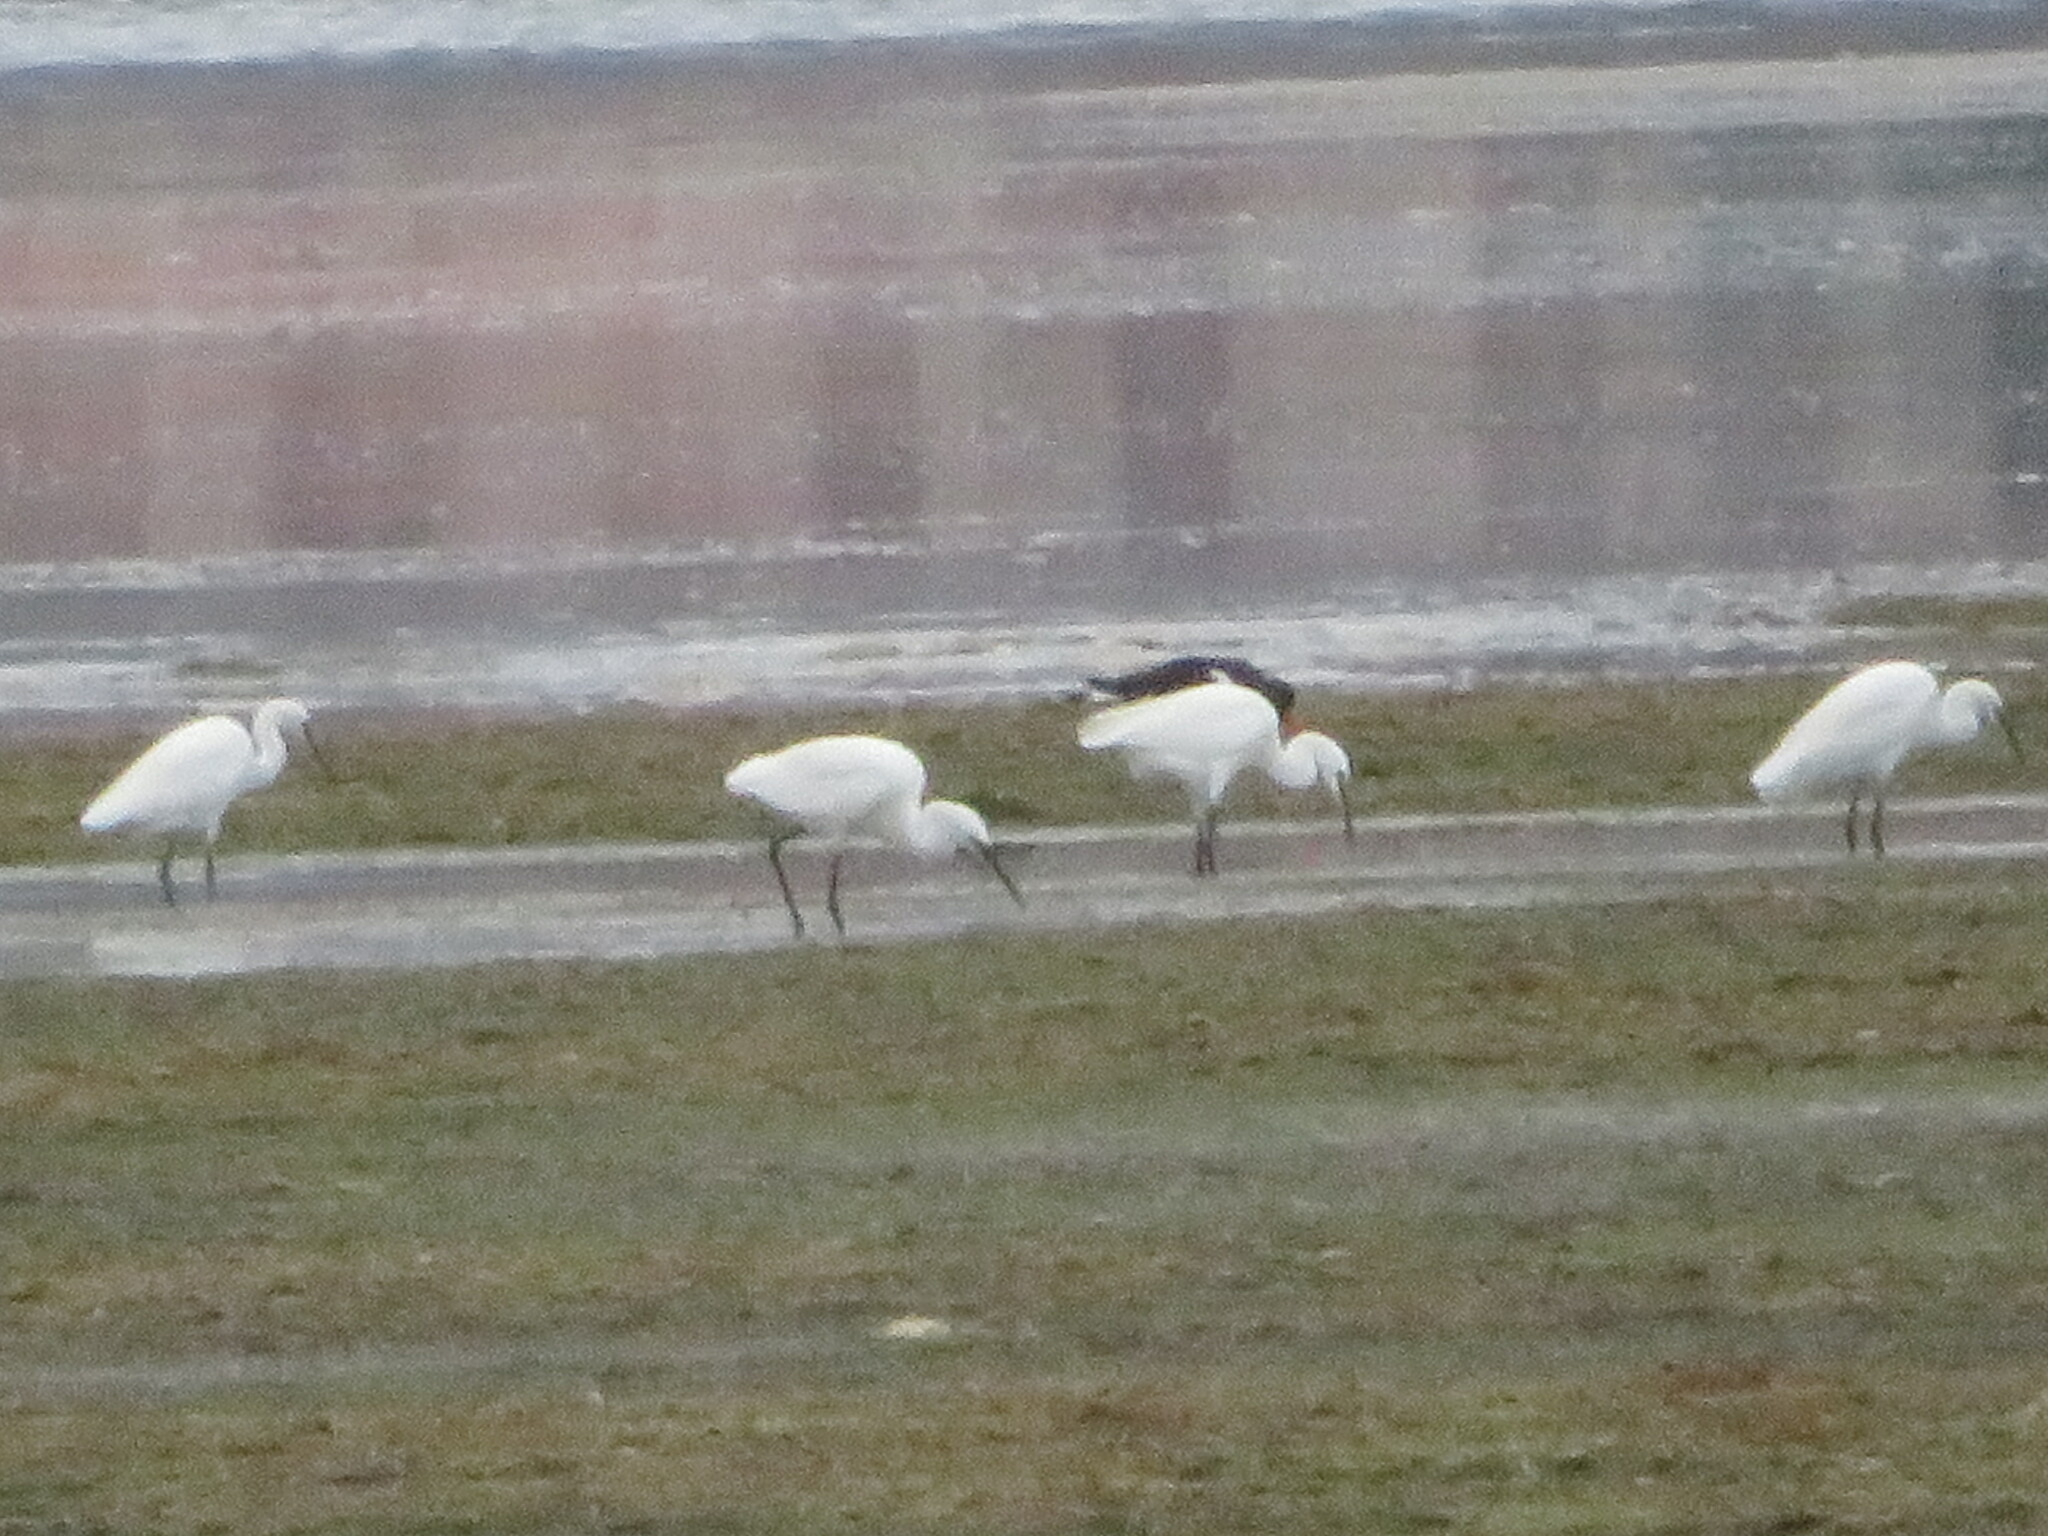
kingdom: Animalia
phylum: Chordata
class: Aves
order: Pelecaniformes
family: Ardeidae
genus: Egretta
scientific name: Egretta garzetta
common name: Little egret
